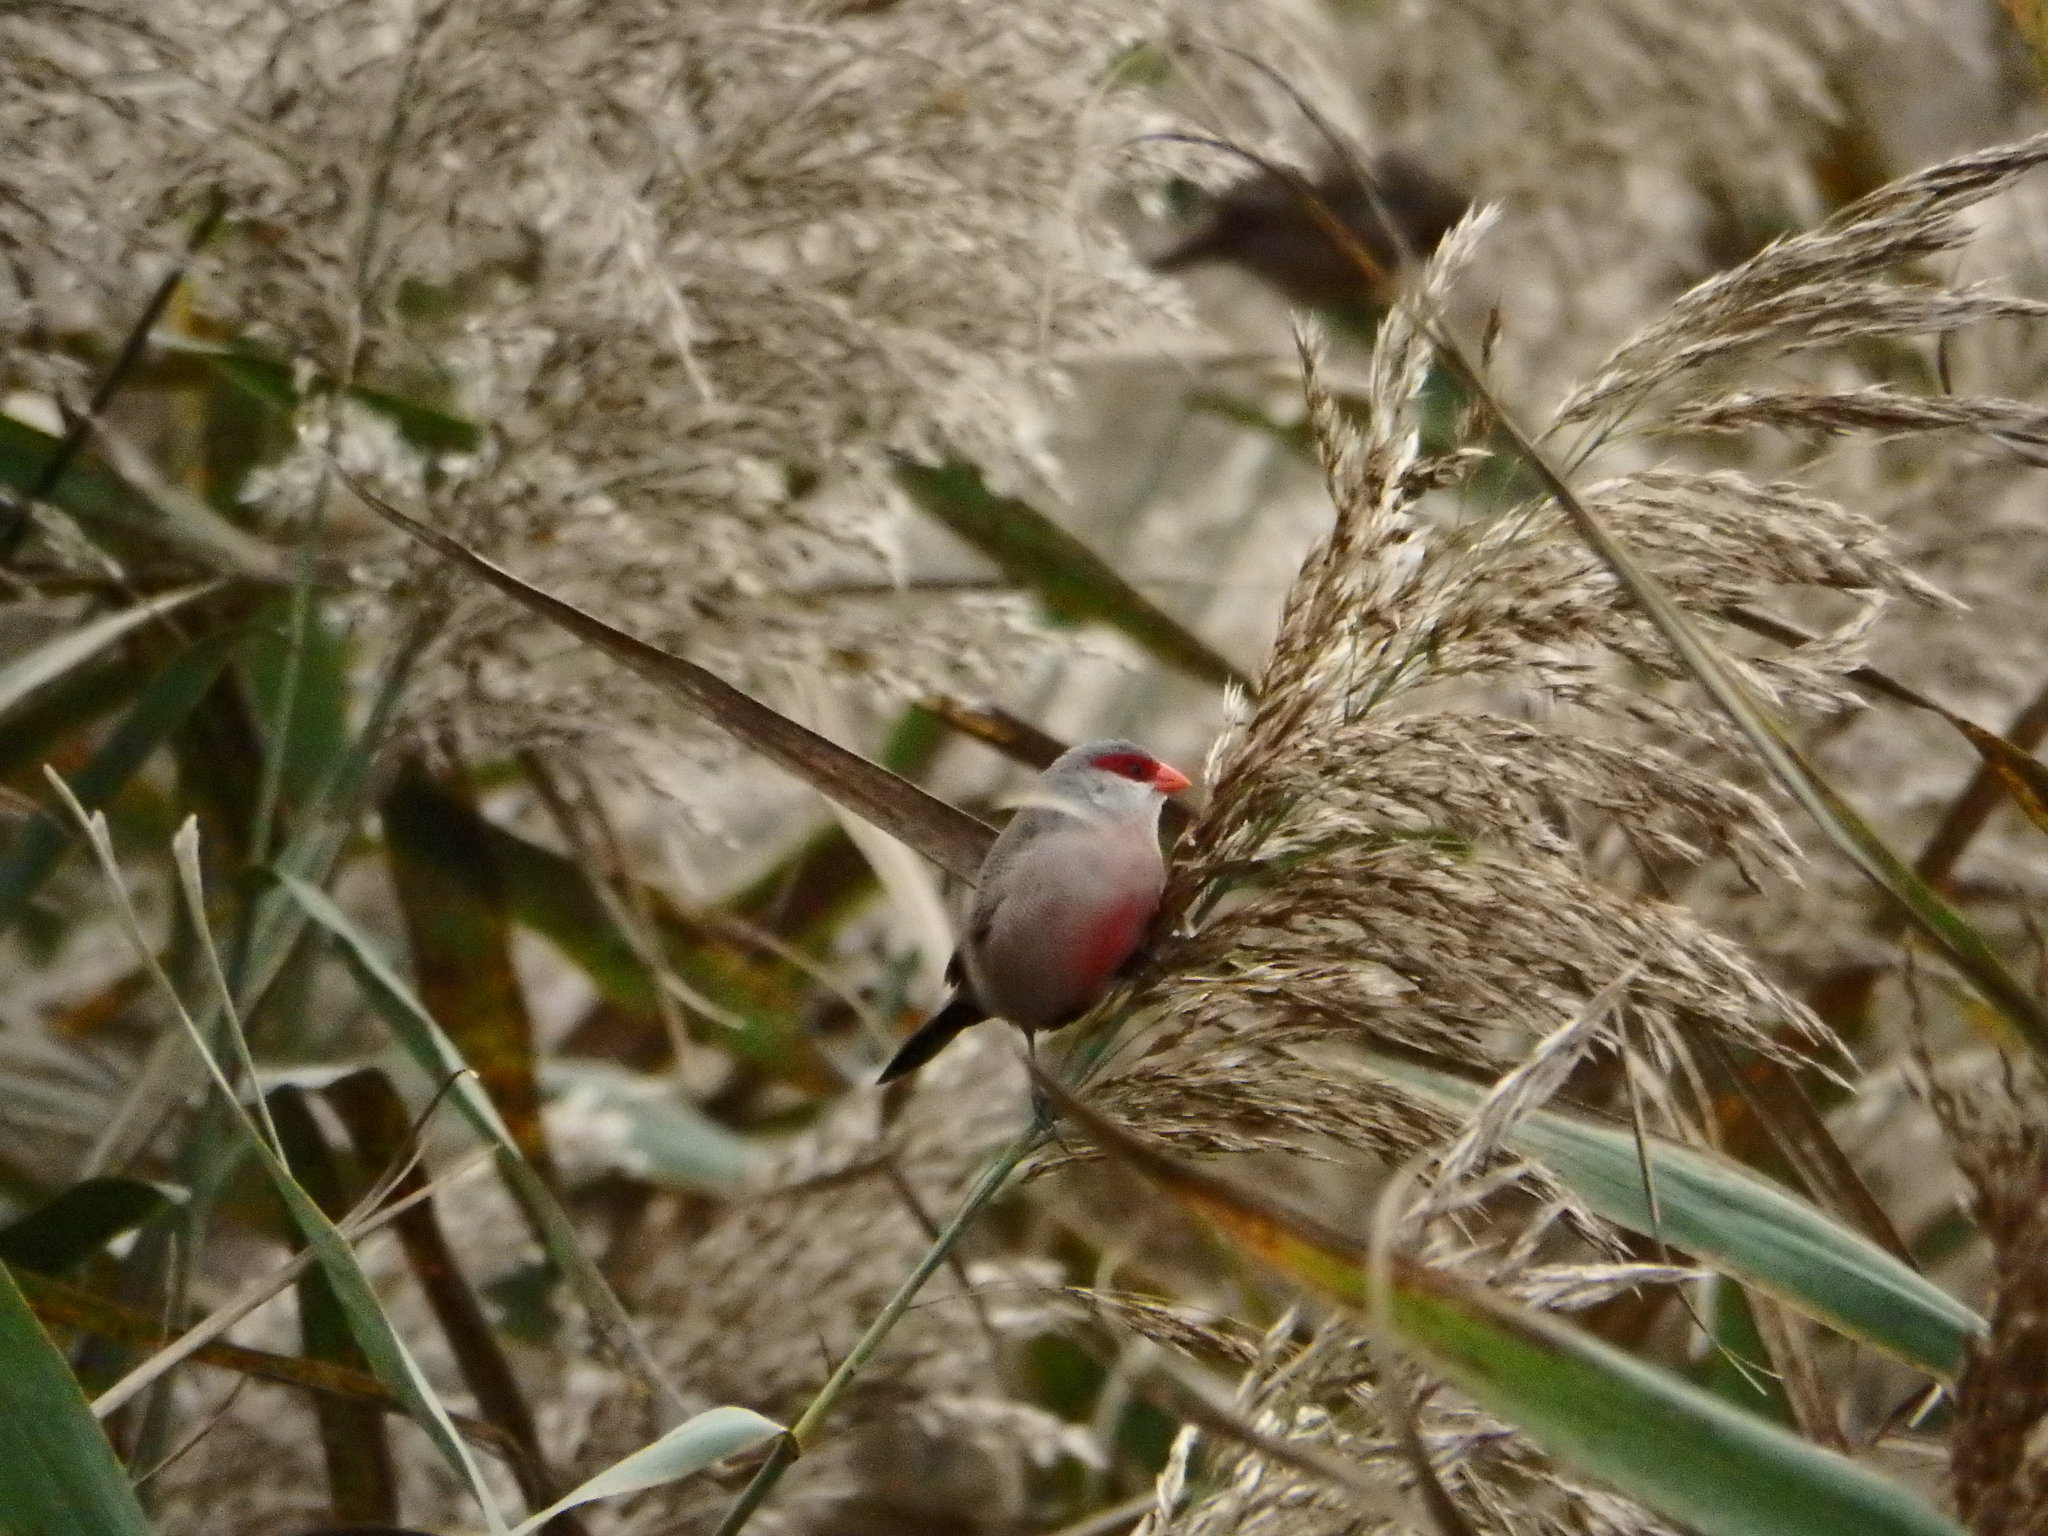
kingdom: Animalia
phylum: Chordata
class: Aves
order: Passeriformes
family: Estrildidae
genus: Estrilda
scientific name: Estrilda astrild
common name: Common waxbill
